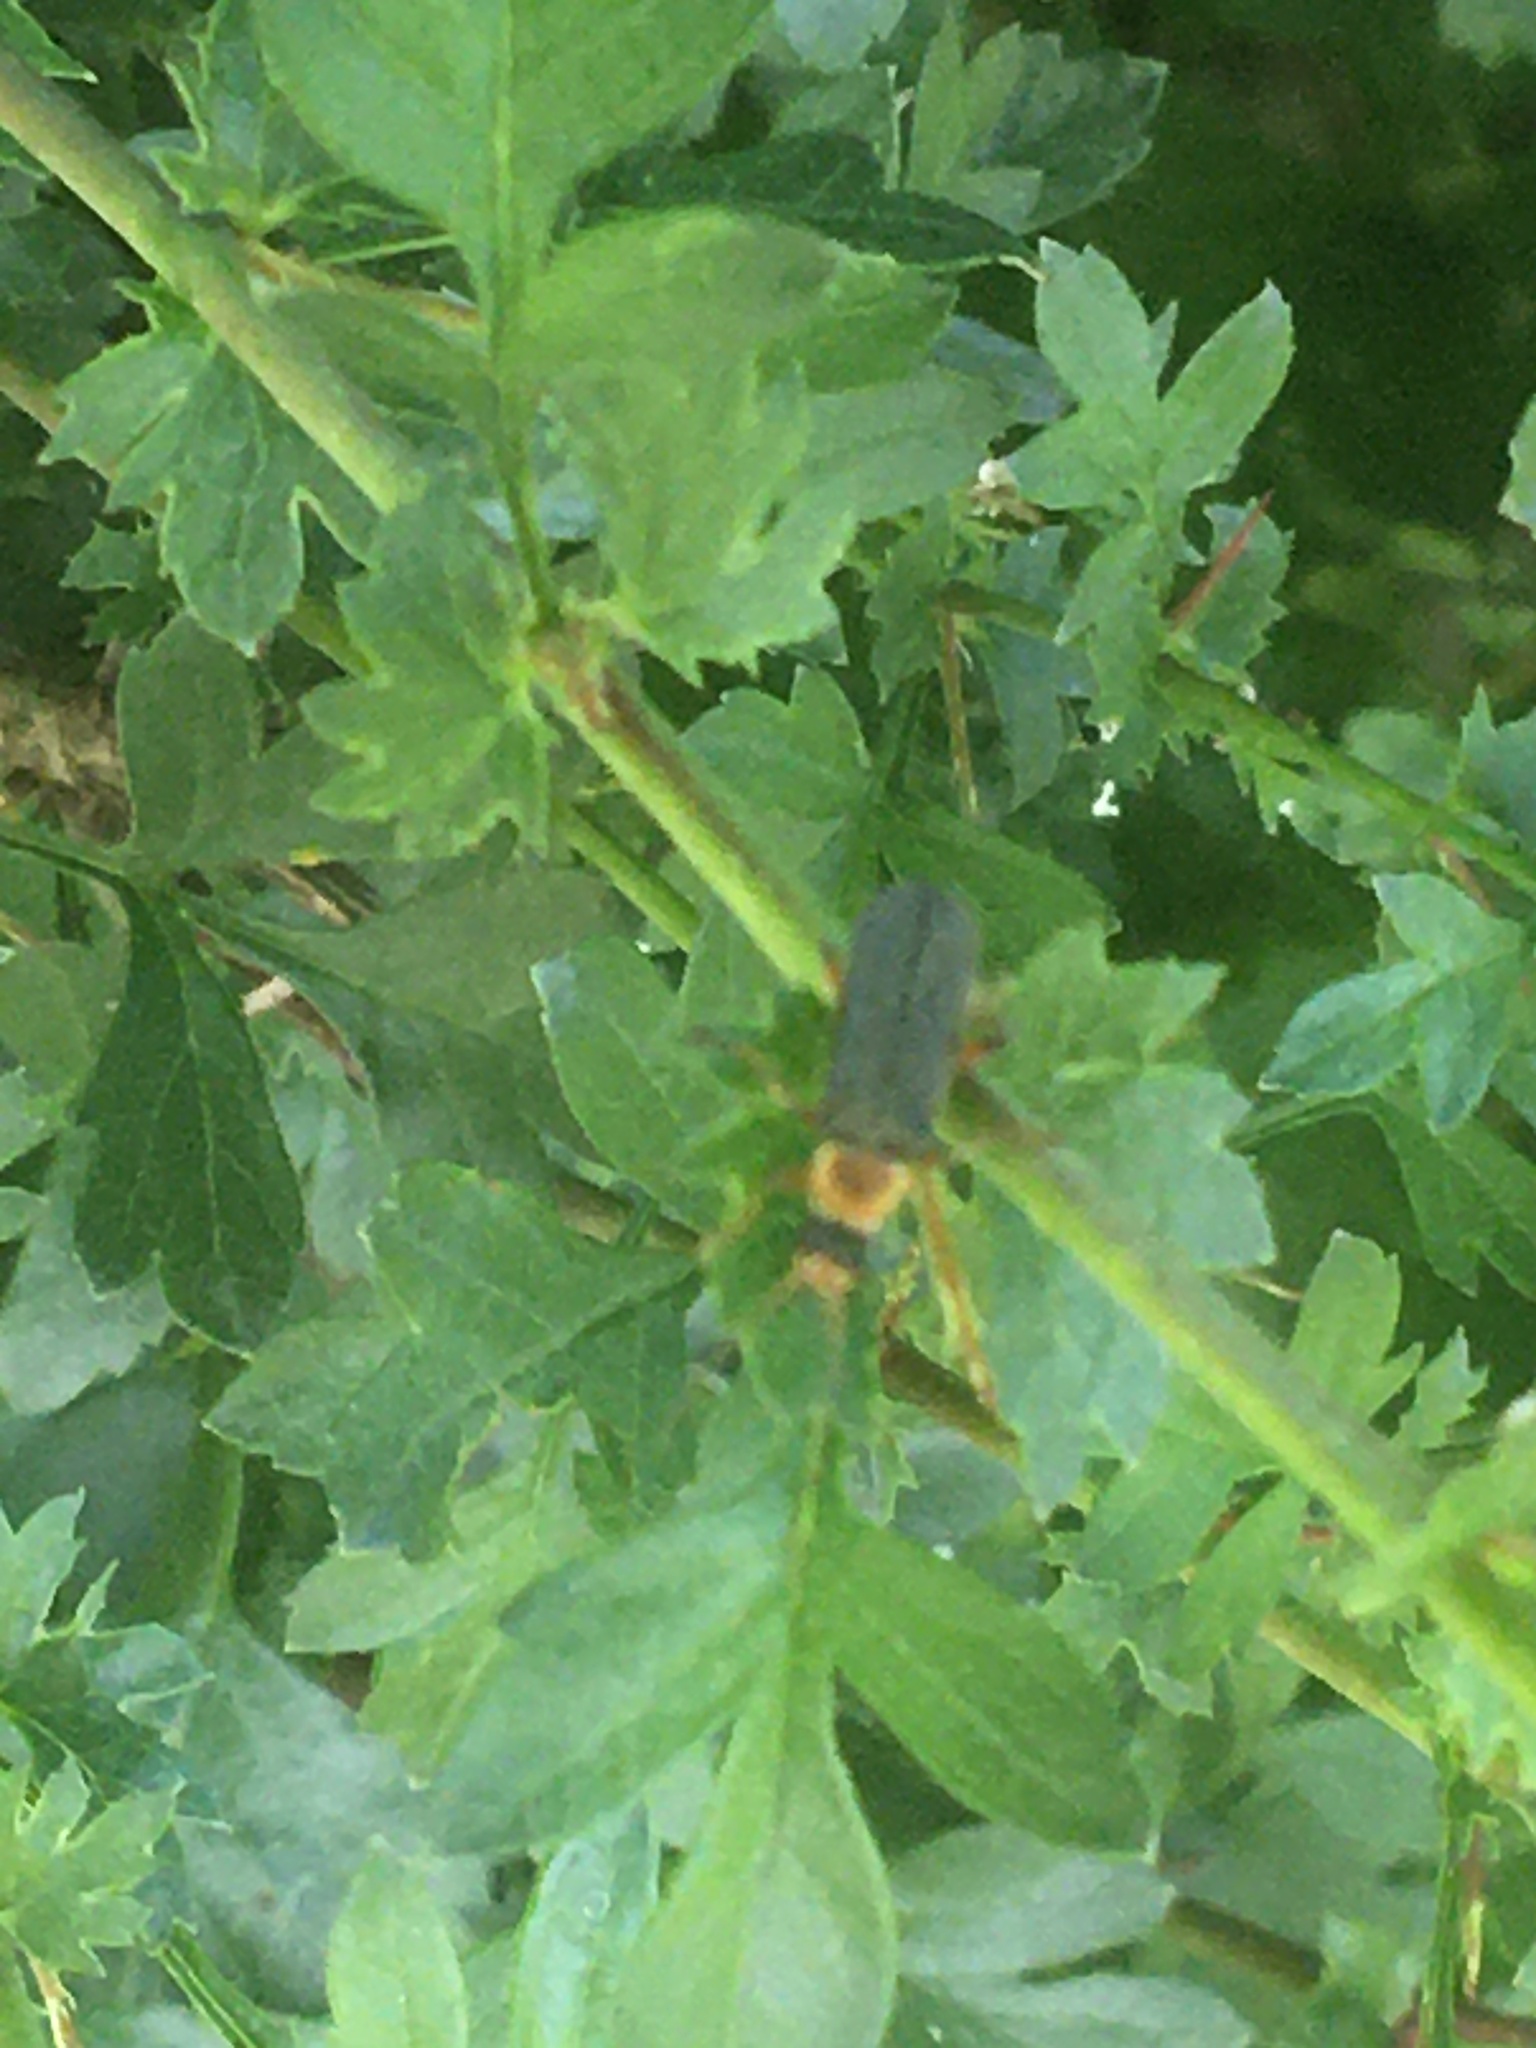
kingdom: Animalia
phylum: Arthropoda
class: Insecta
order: Coleoptera
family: Cantharidae
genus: Cantharis
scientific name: Cantharis nigricans
